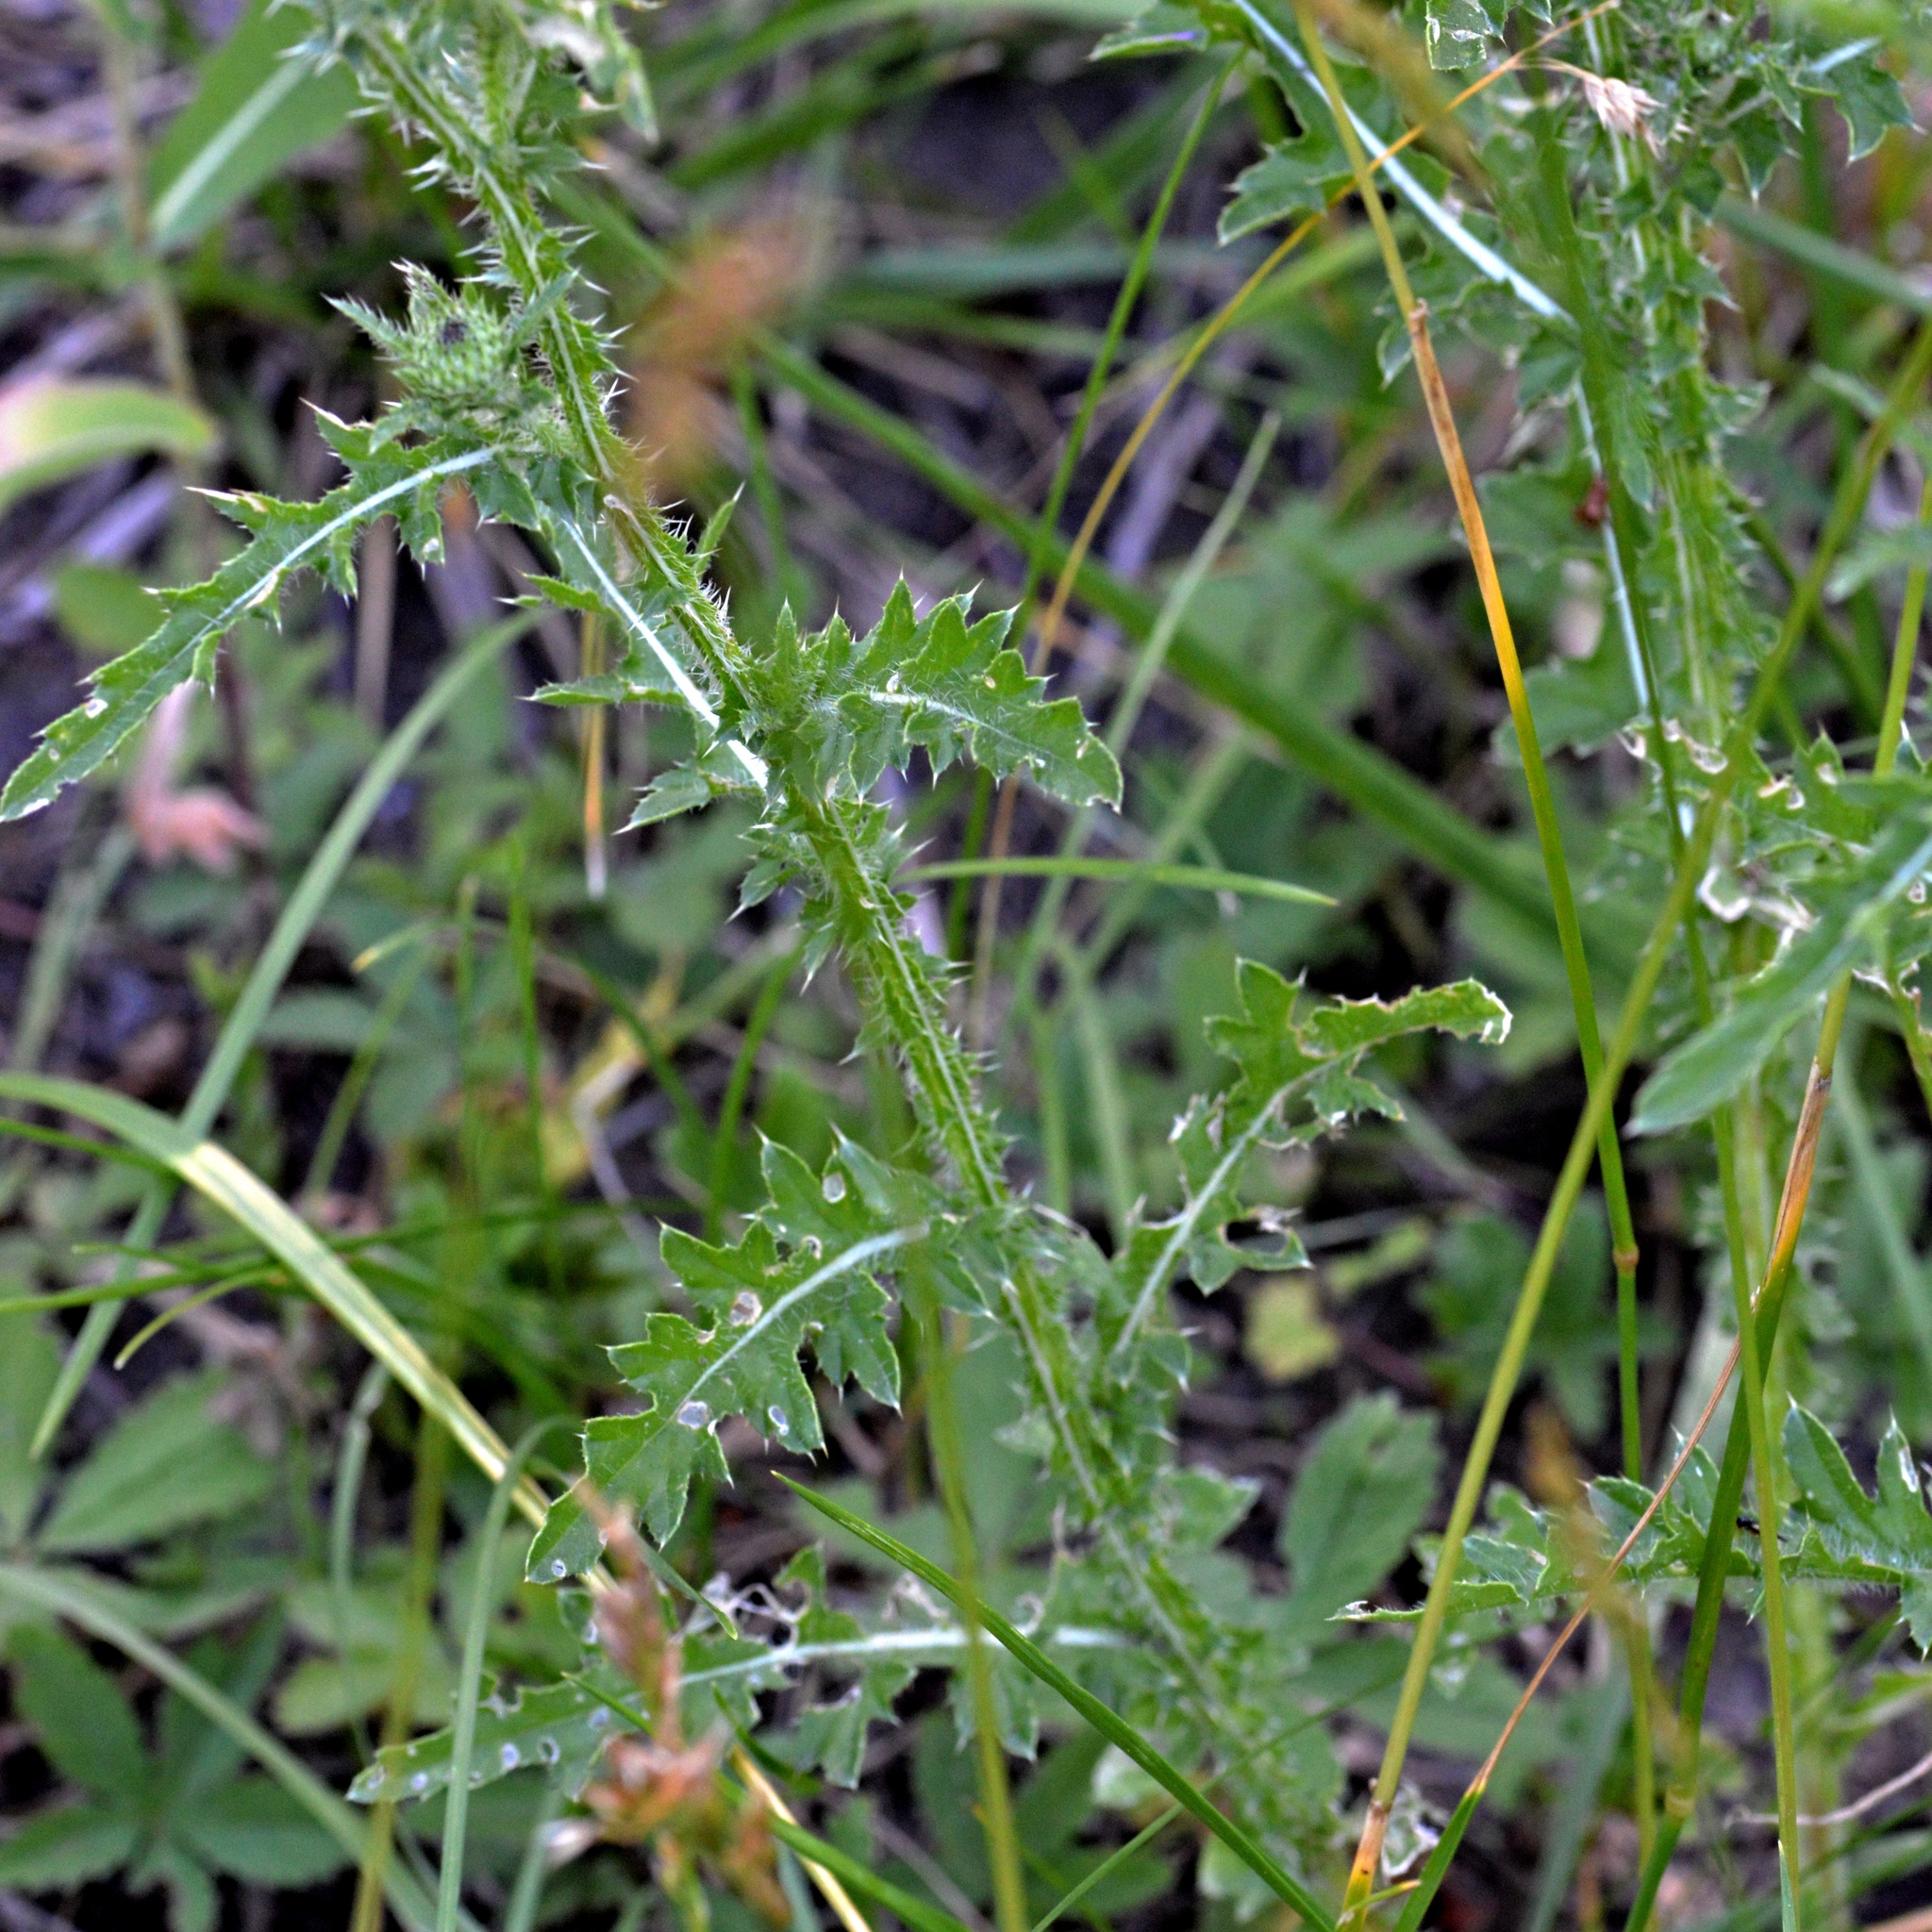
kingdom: Plantae
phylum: Tracheophyta
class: Magnoliopsida
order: Asterales
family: Asteraceae
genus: Carduus
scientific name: Carduus acanthoides
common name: Plumeless thistle
